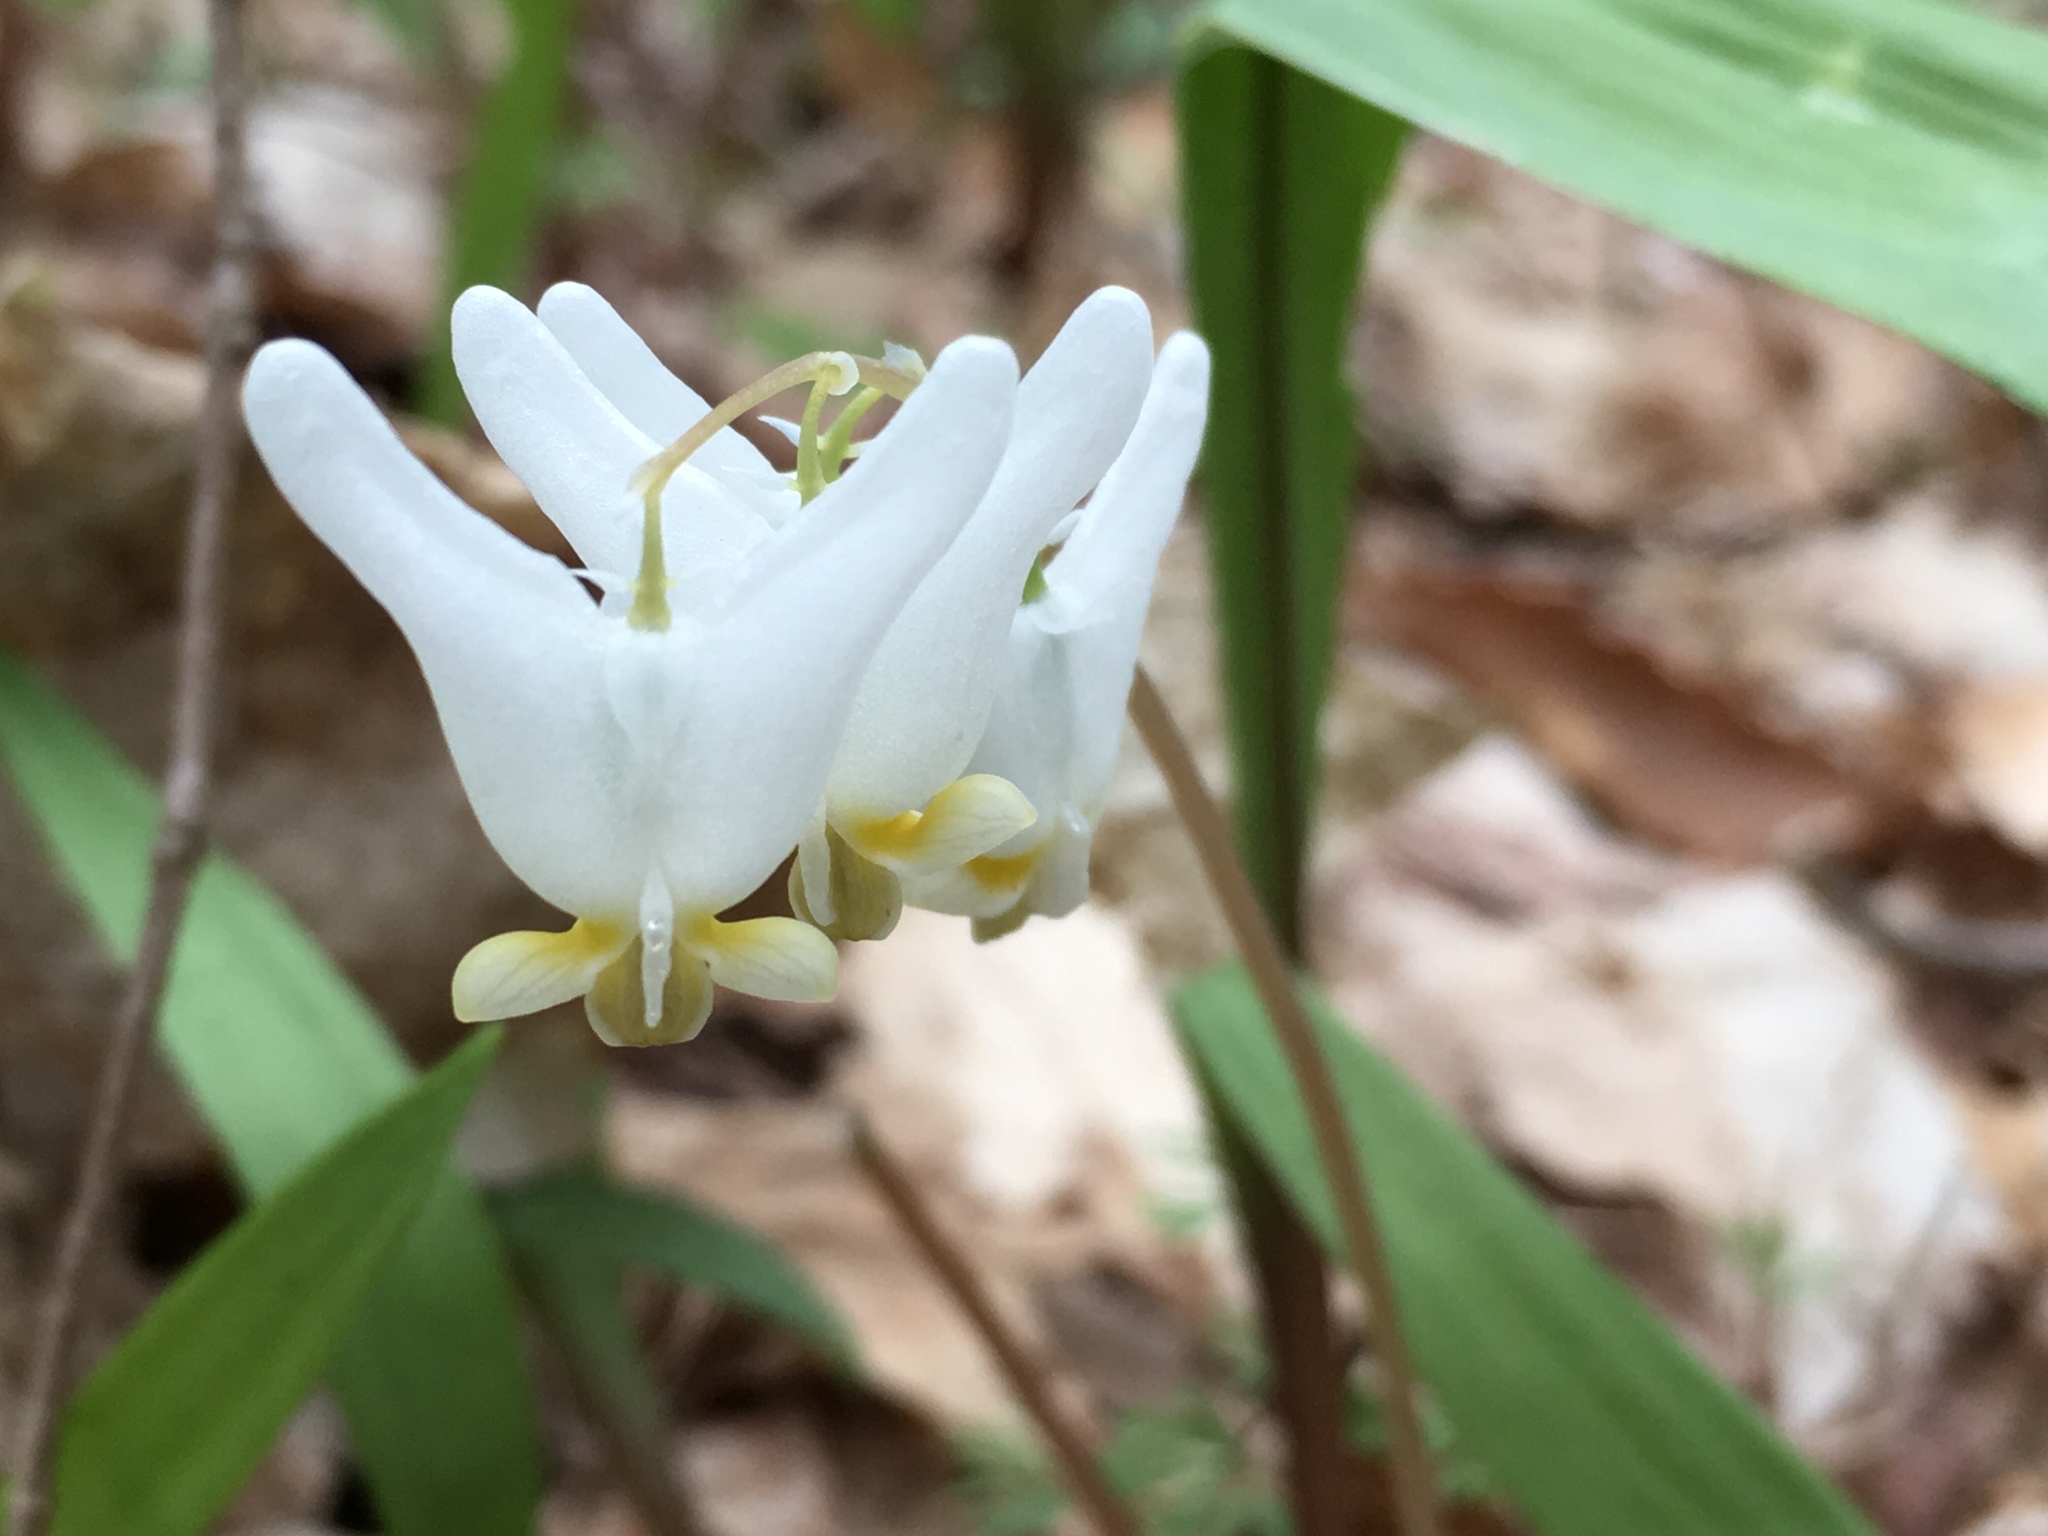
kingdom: Plantae
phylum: Tracheophyta
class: Magnoliopsida
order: Ranunculales
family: Papaveraceae
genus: Dicentra
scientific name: Dicentra cucullaria
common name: Dutchman's breeches
